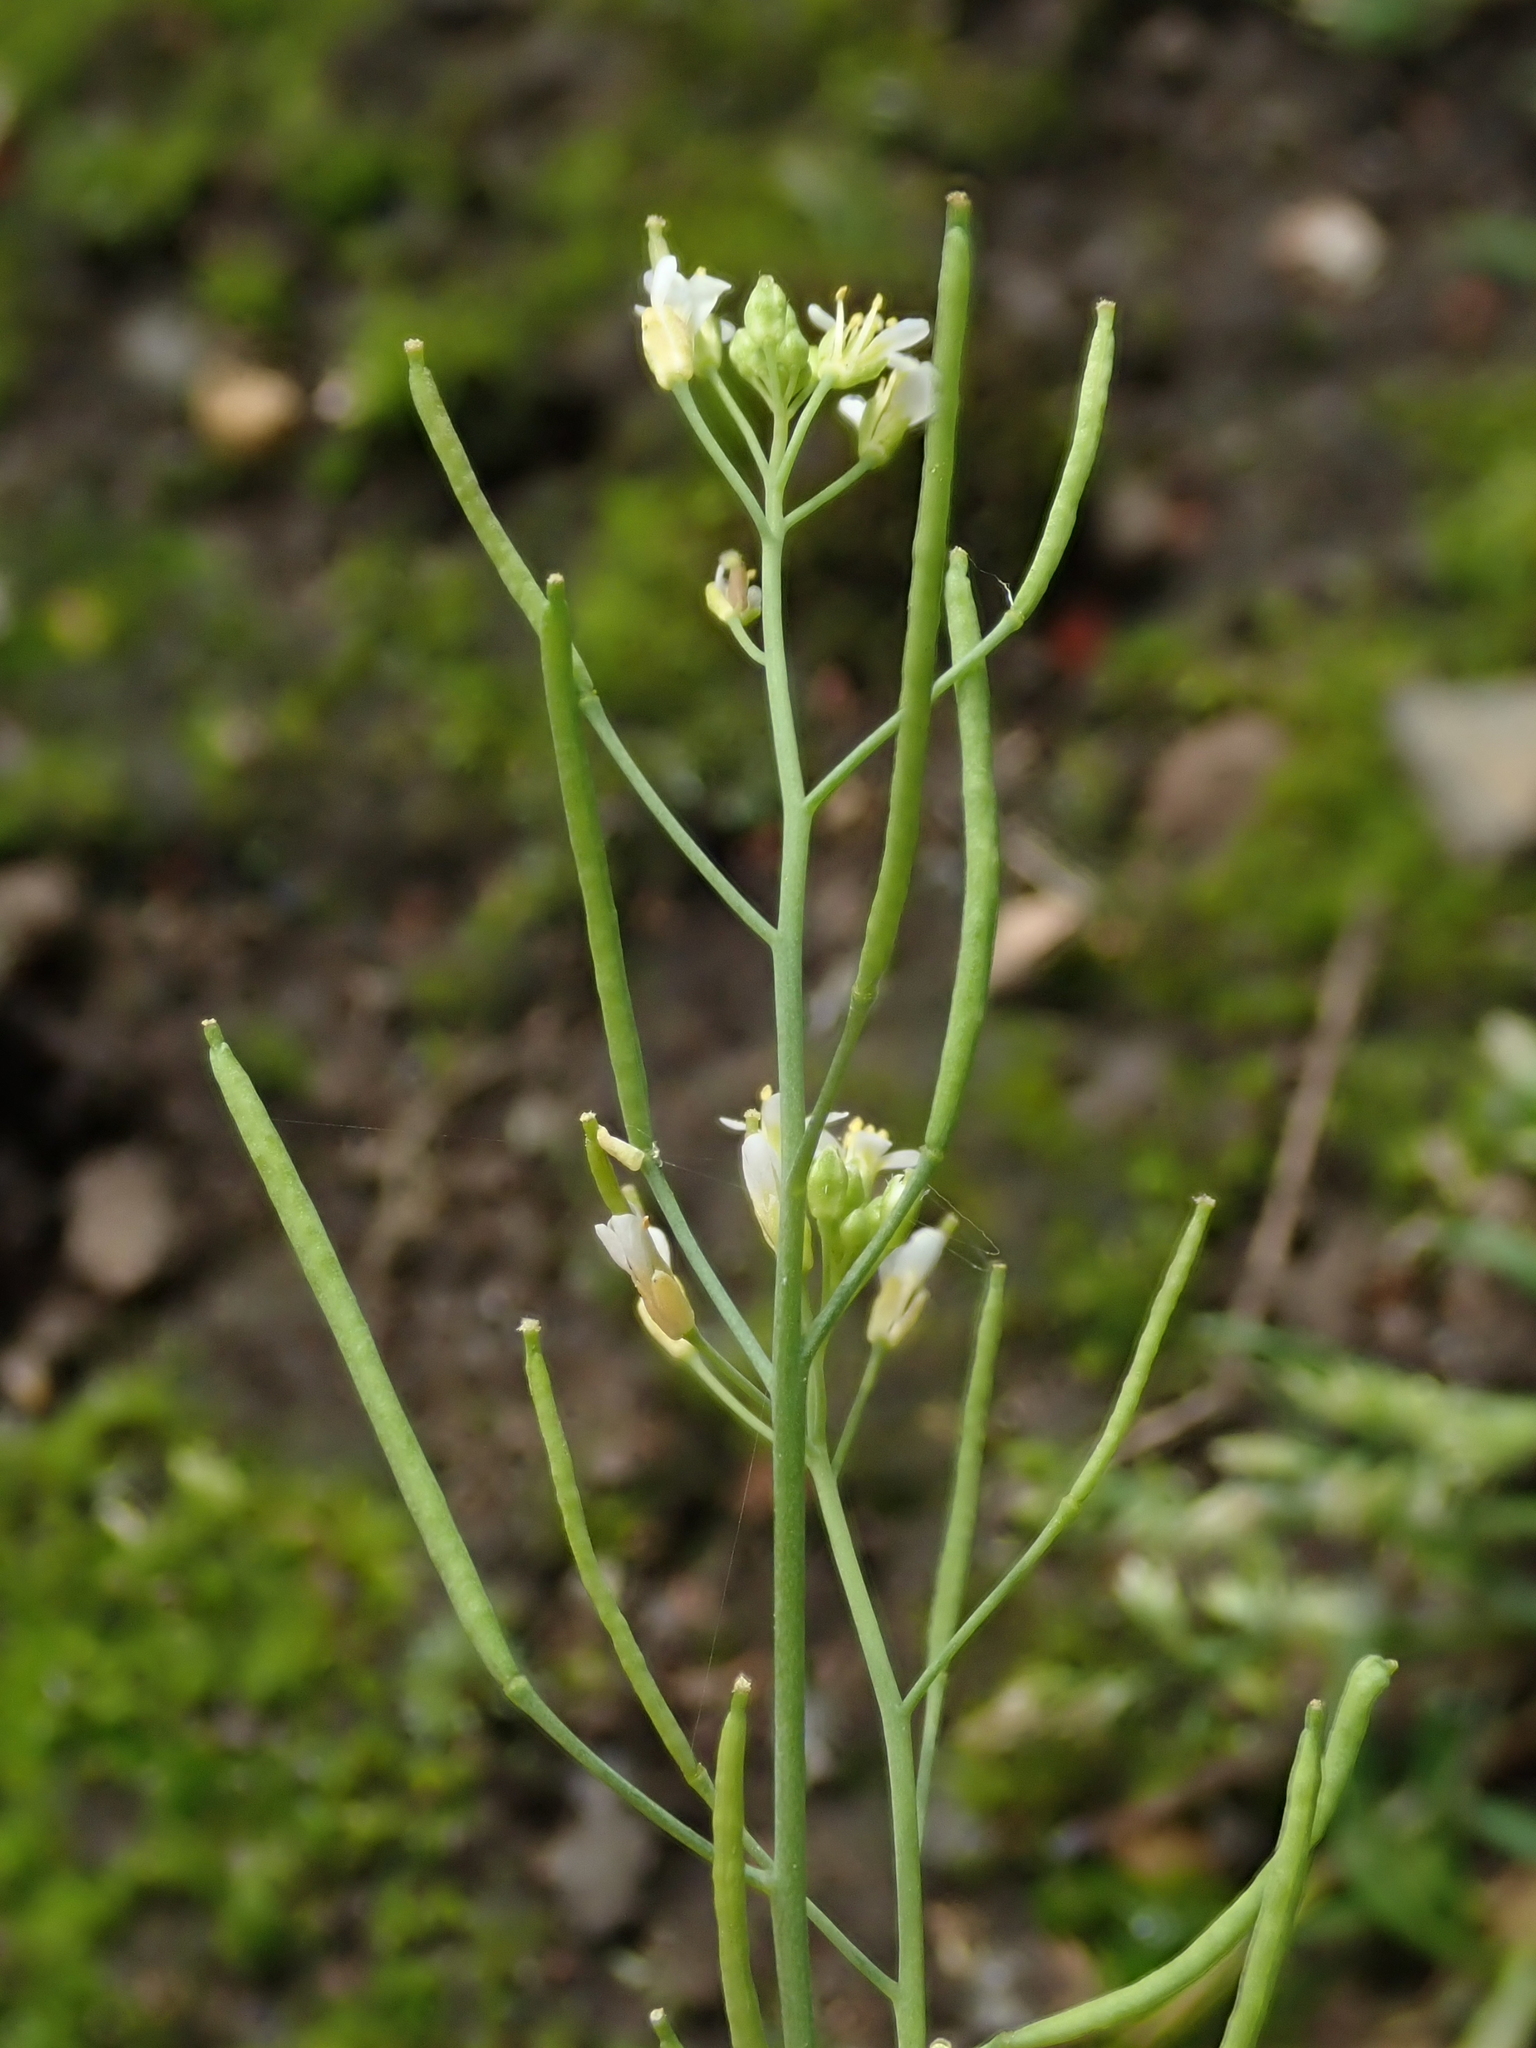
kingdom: Plantae
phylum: Tracheophyta
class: Magnoliopsida
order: Brassicales
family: Brassicaceae
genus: Arabidopsis
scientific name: Arabidopsis thaliana
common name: Thale cress
